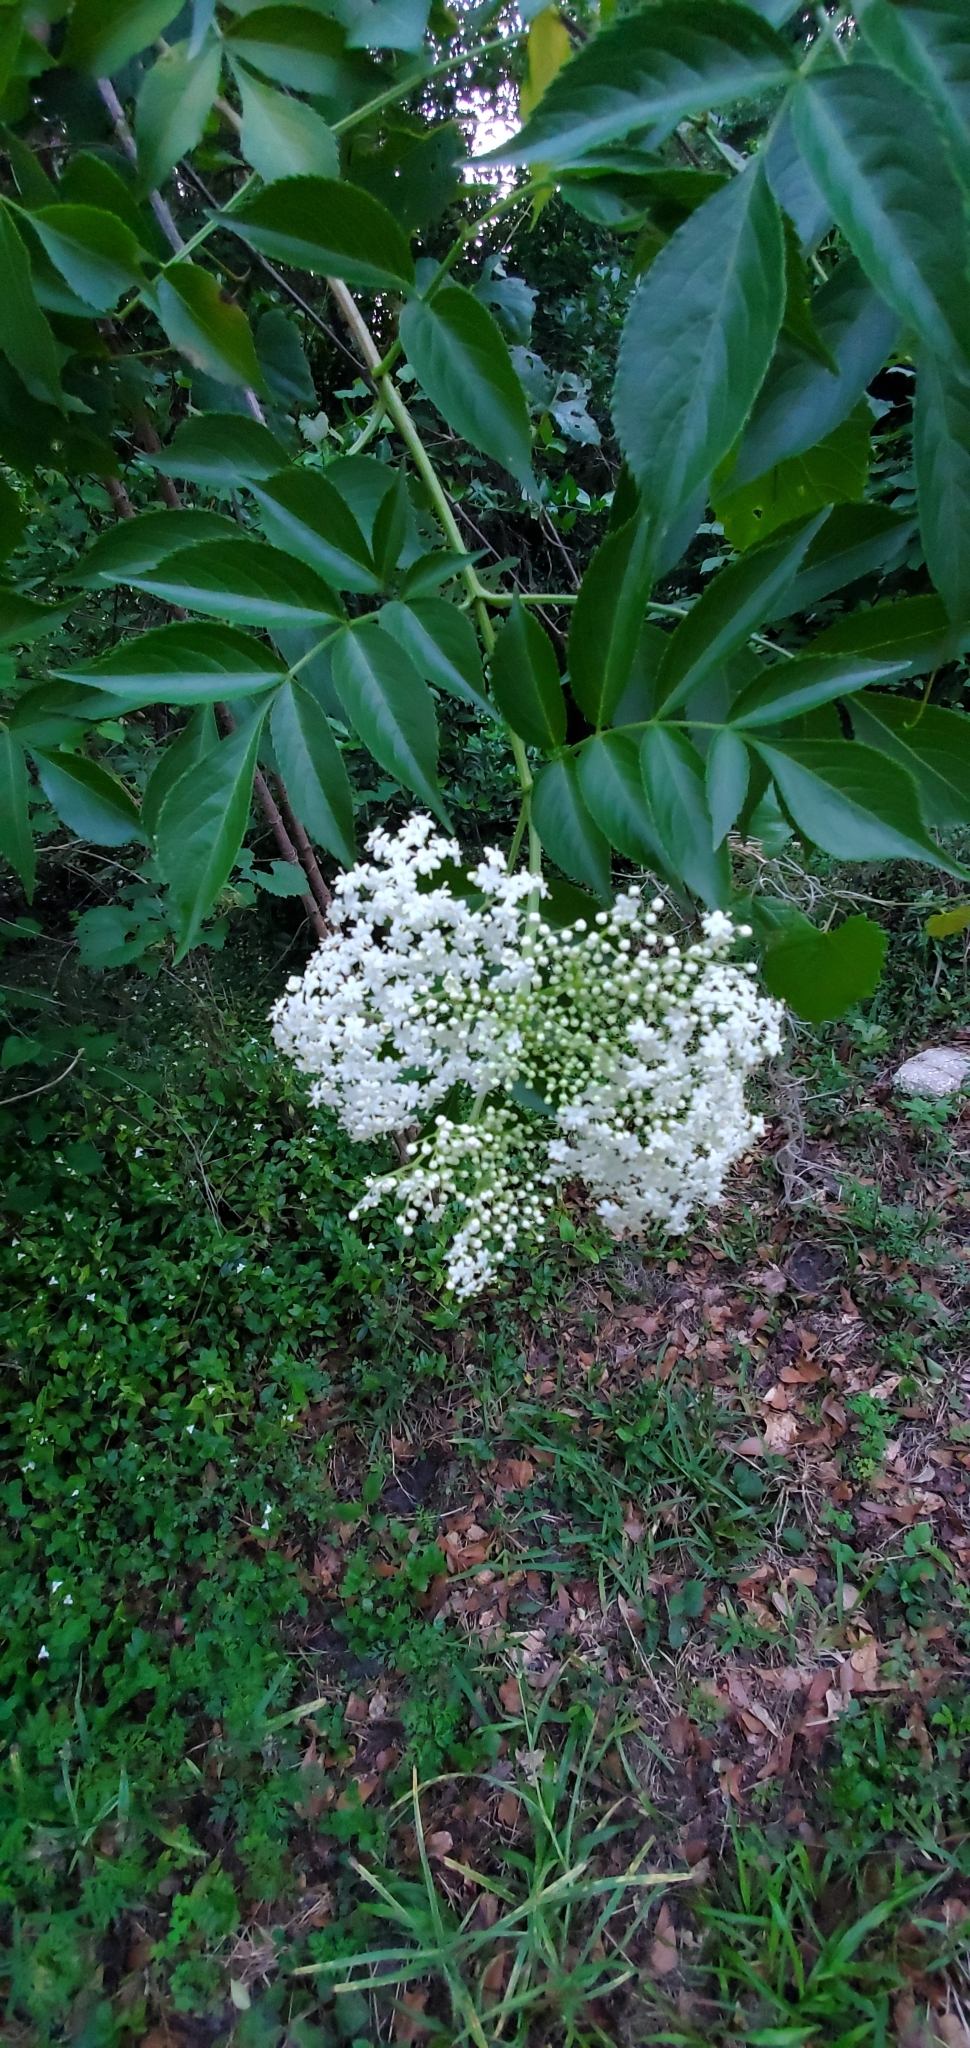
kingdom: Plantae
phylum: Tracheophyta
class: Magnoliopsida
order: Dipsacales
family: Viburnaceae
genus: Sambucus
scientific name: Sambucus canadensis
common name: American elder
